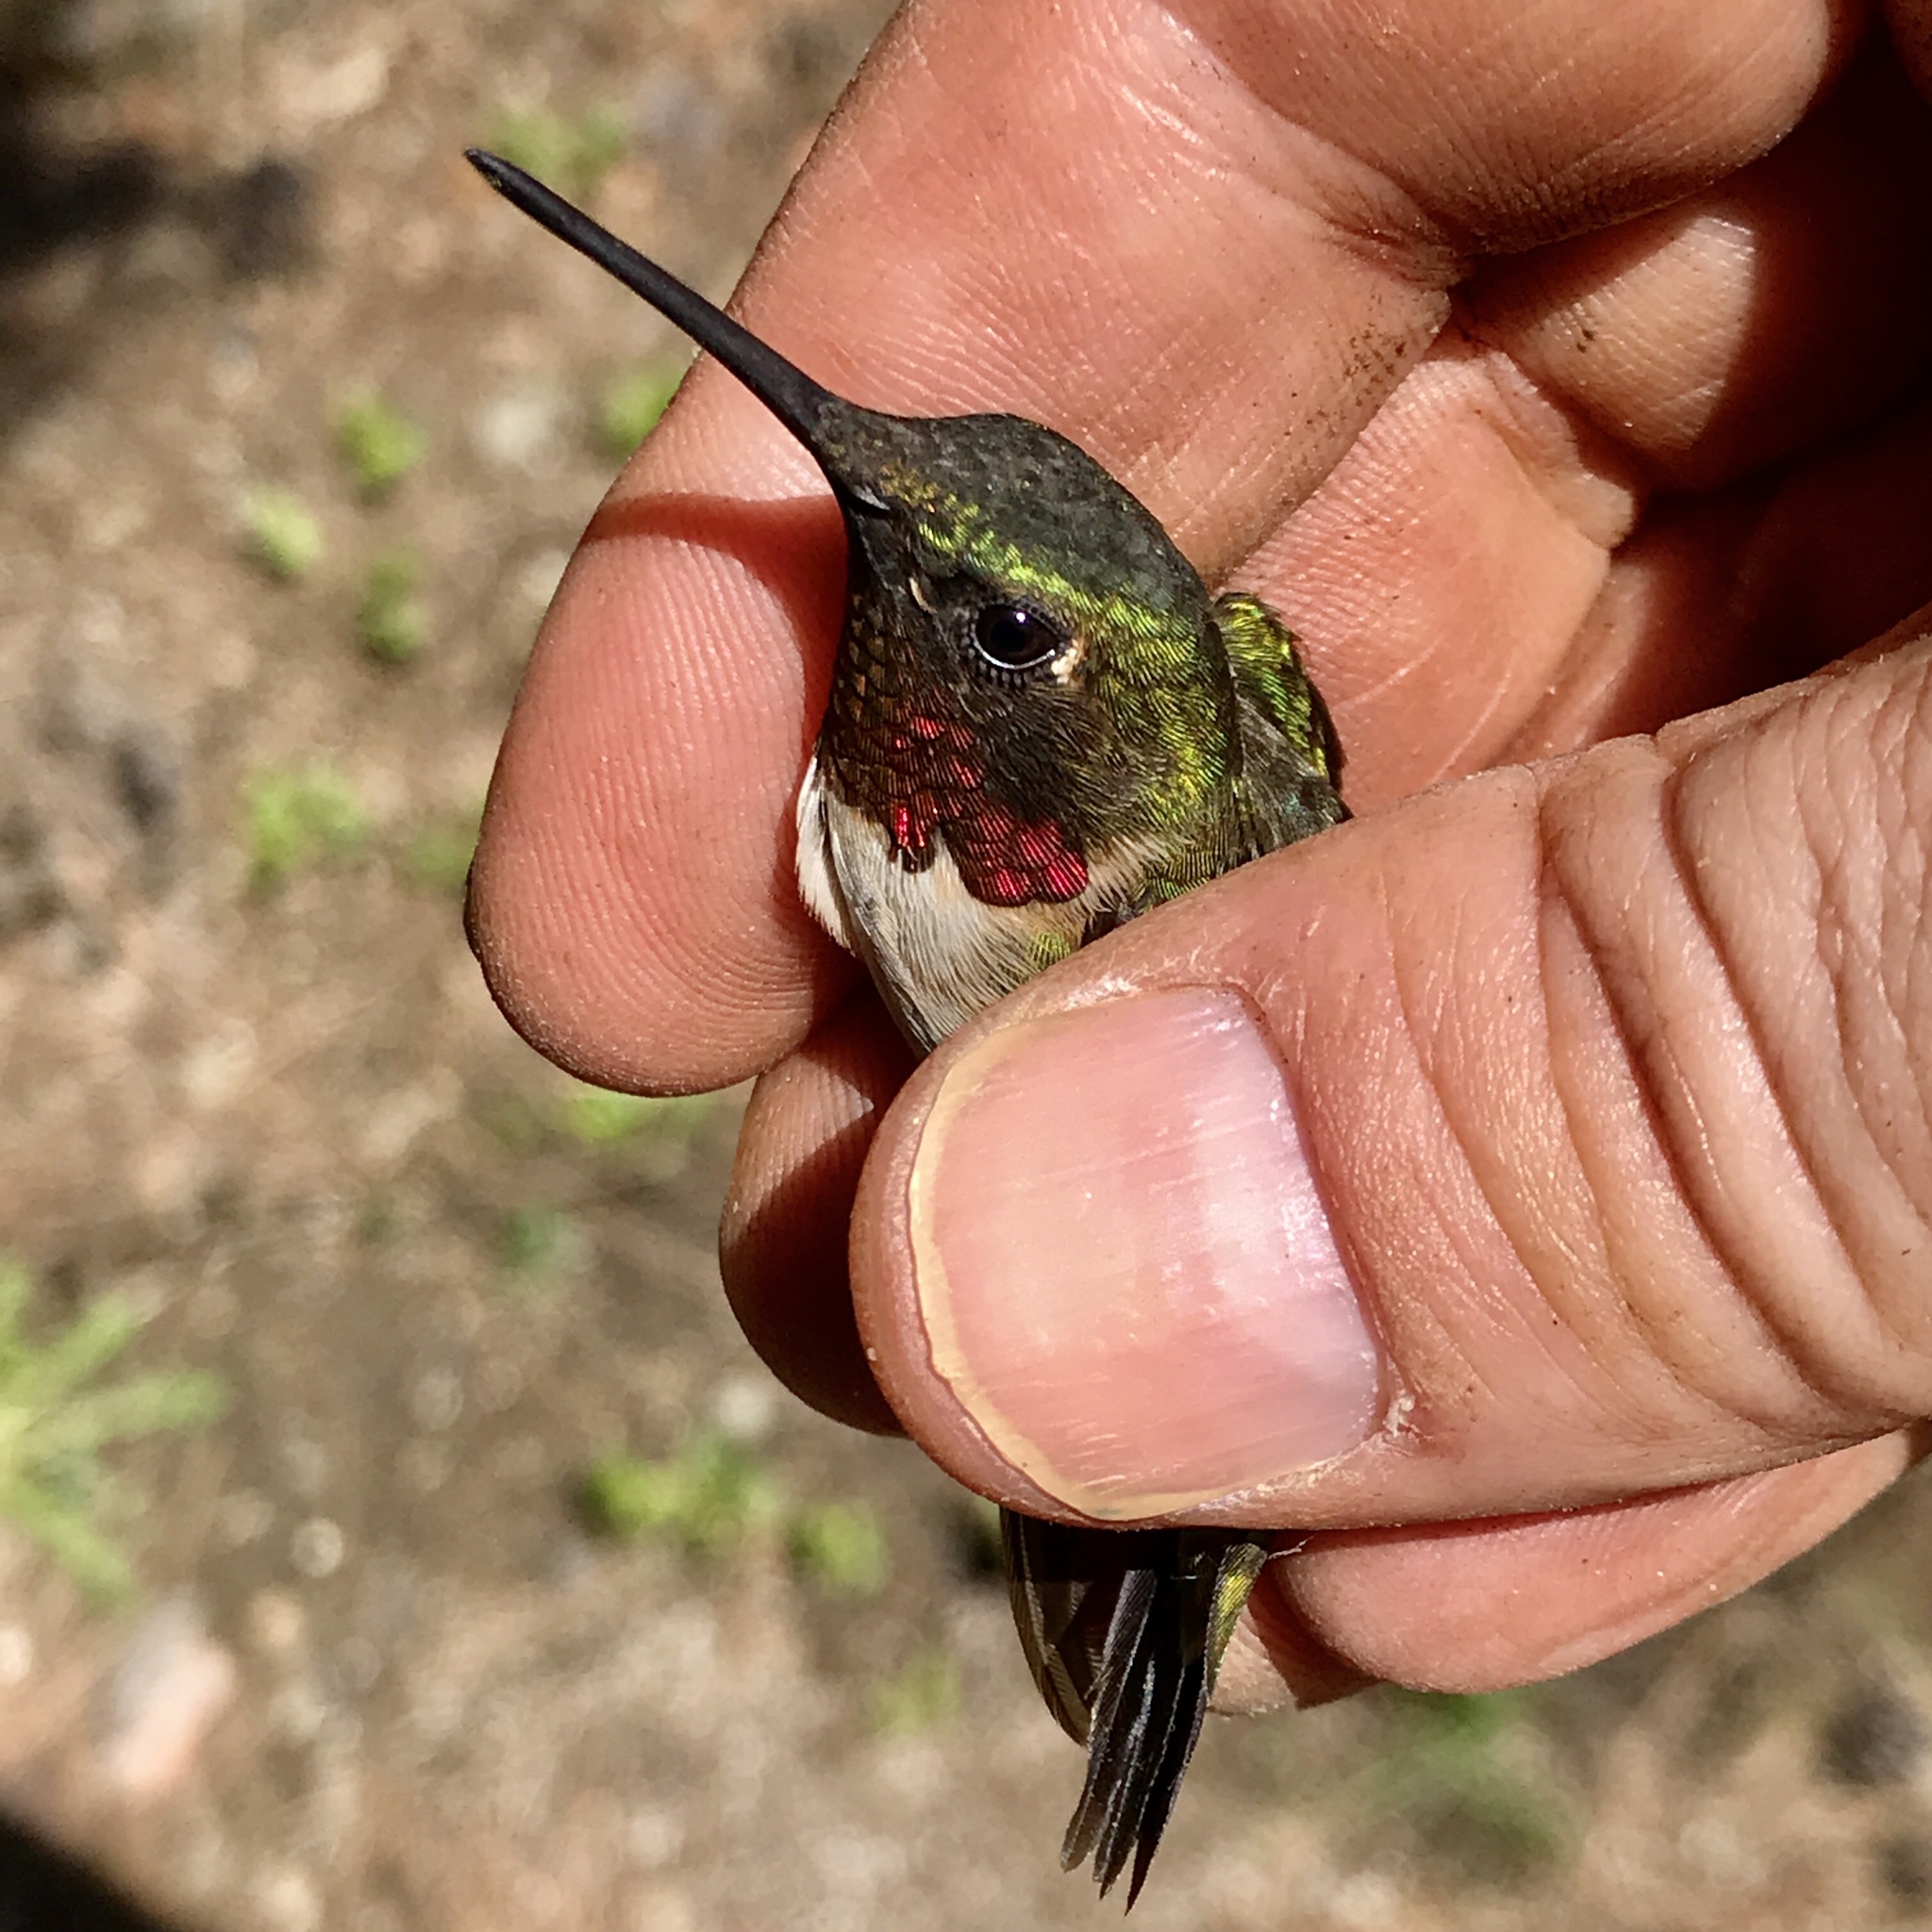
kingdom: Animalia
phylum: Chordata
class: Aves
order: Apodiformes
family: Trochilidae
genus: Archilochus
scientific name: Archilochus colubris
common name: Ruby-throated hummingbird
